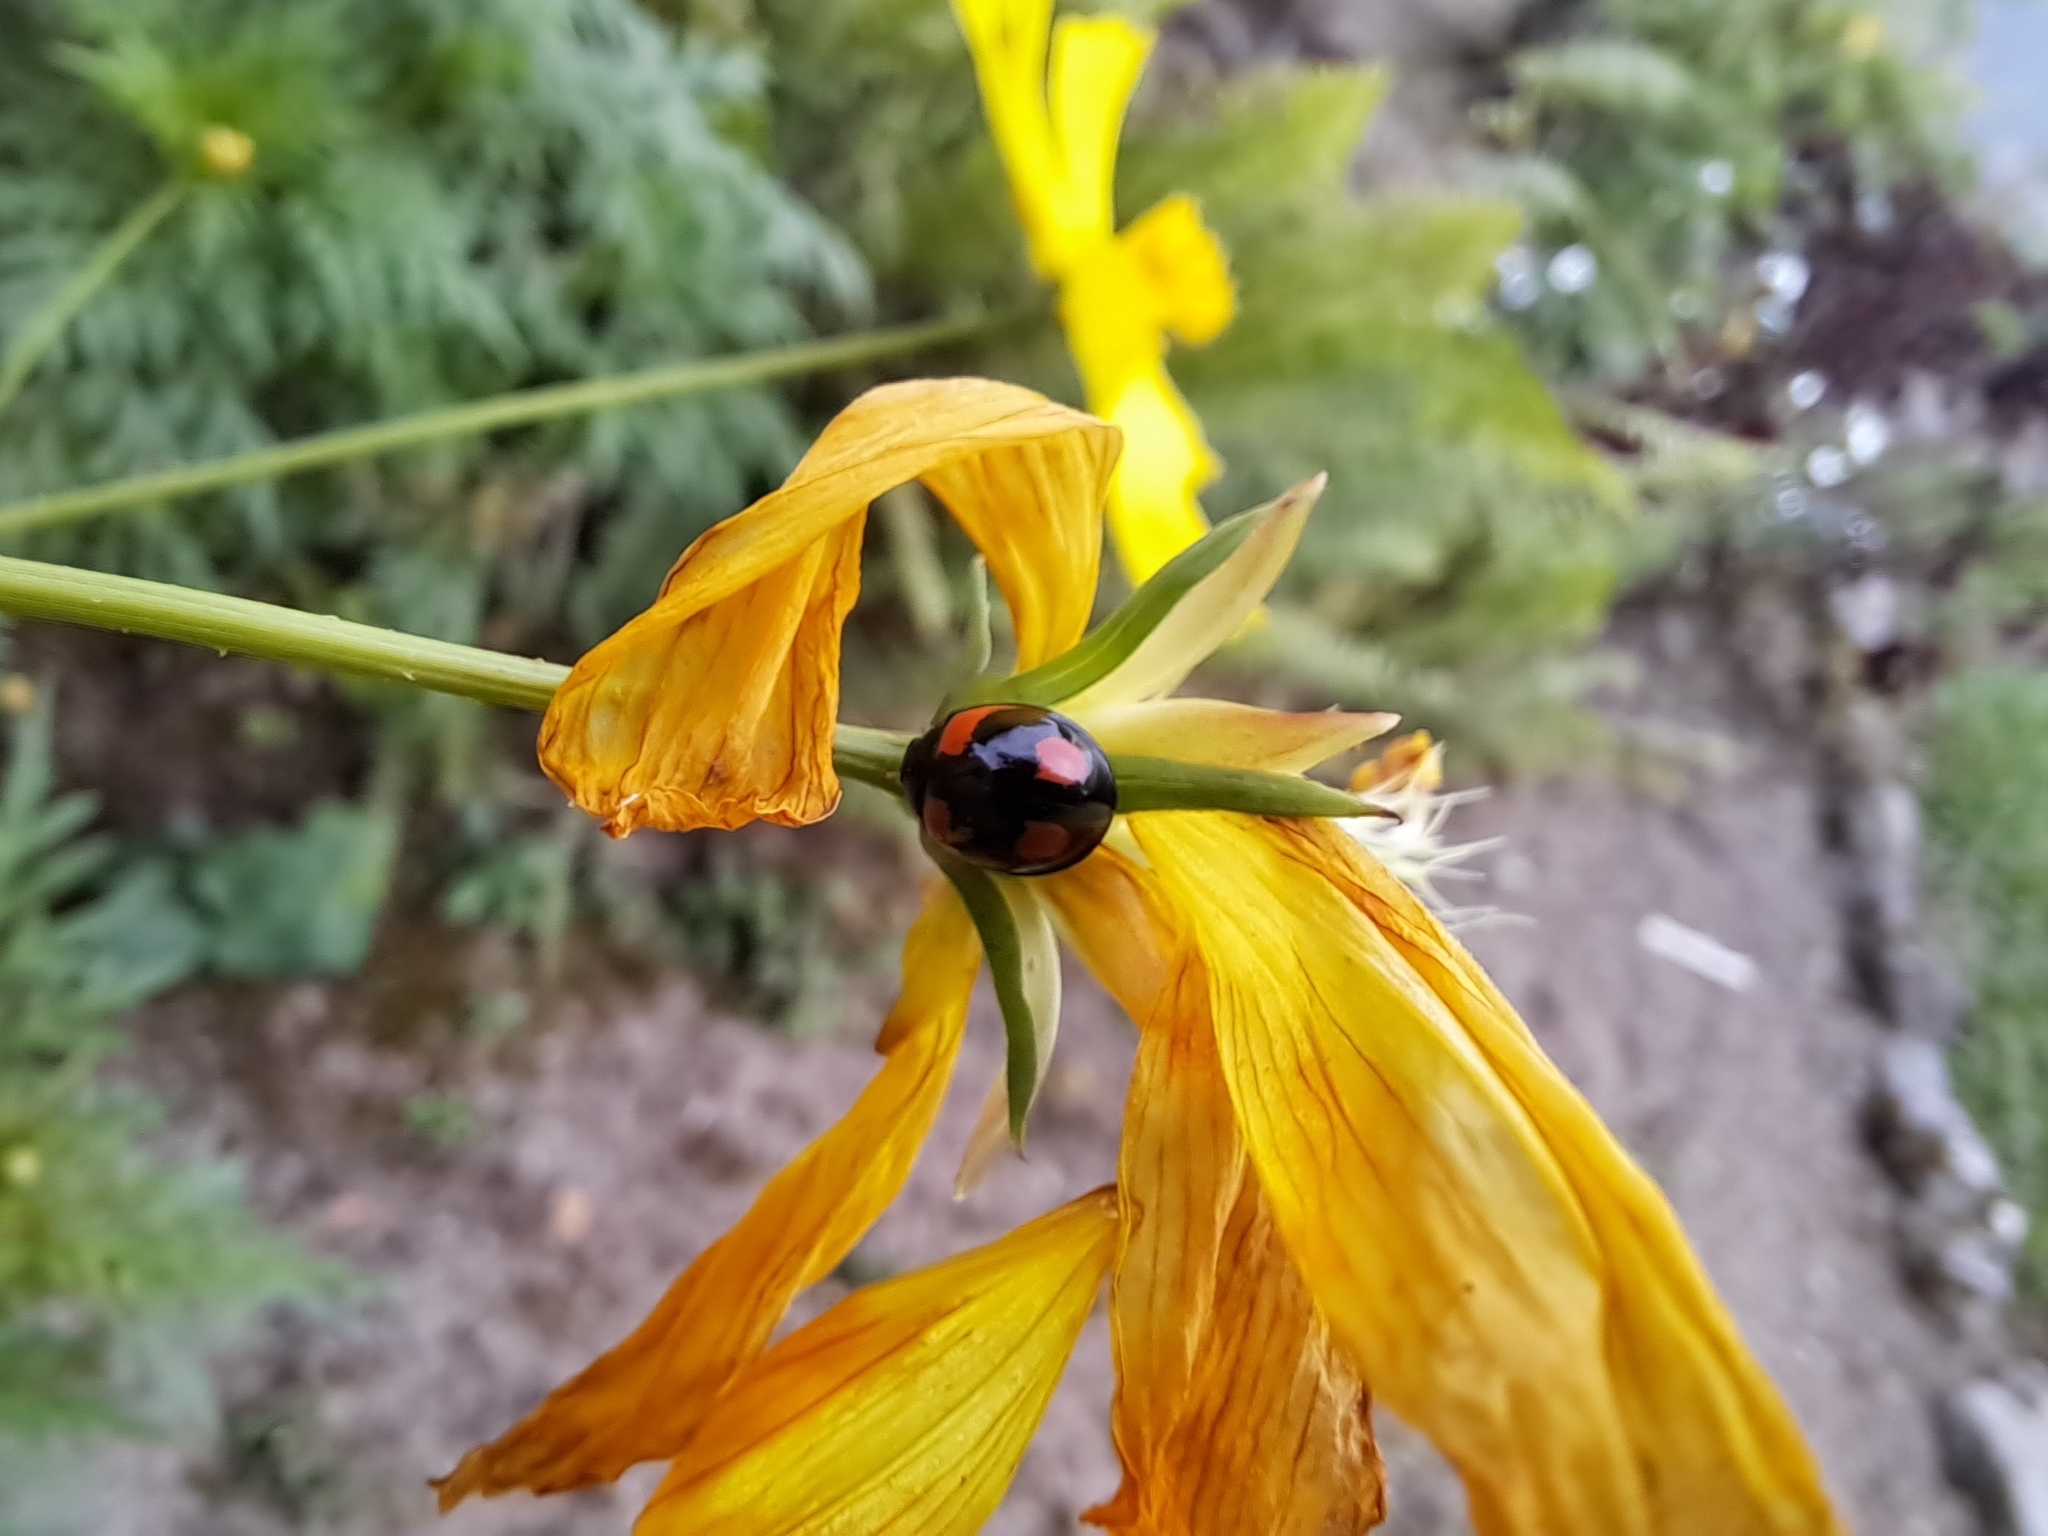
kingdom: Animalia
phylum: Arthropoda
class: Insecta
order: Coleoptera
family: Coccinellidae
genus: Cheilomenes
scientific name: Cheilomenes sexmaculata
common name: Ladybird beetle
